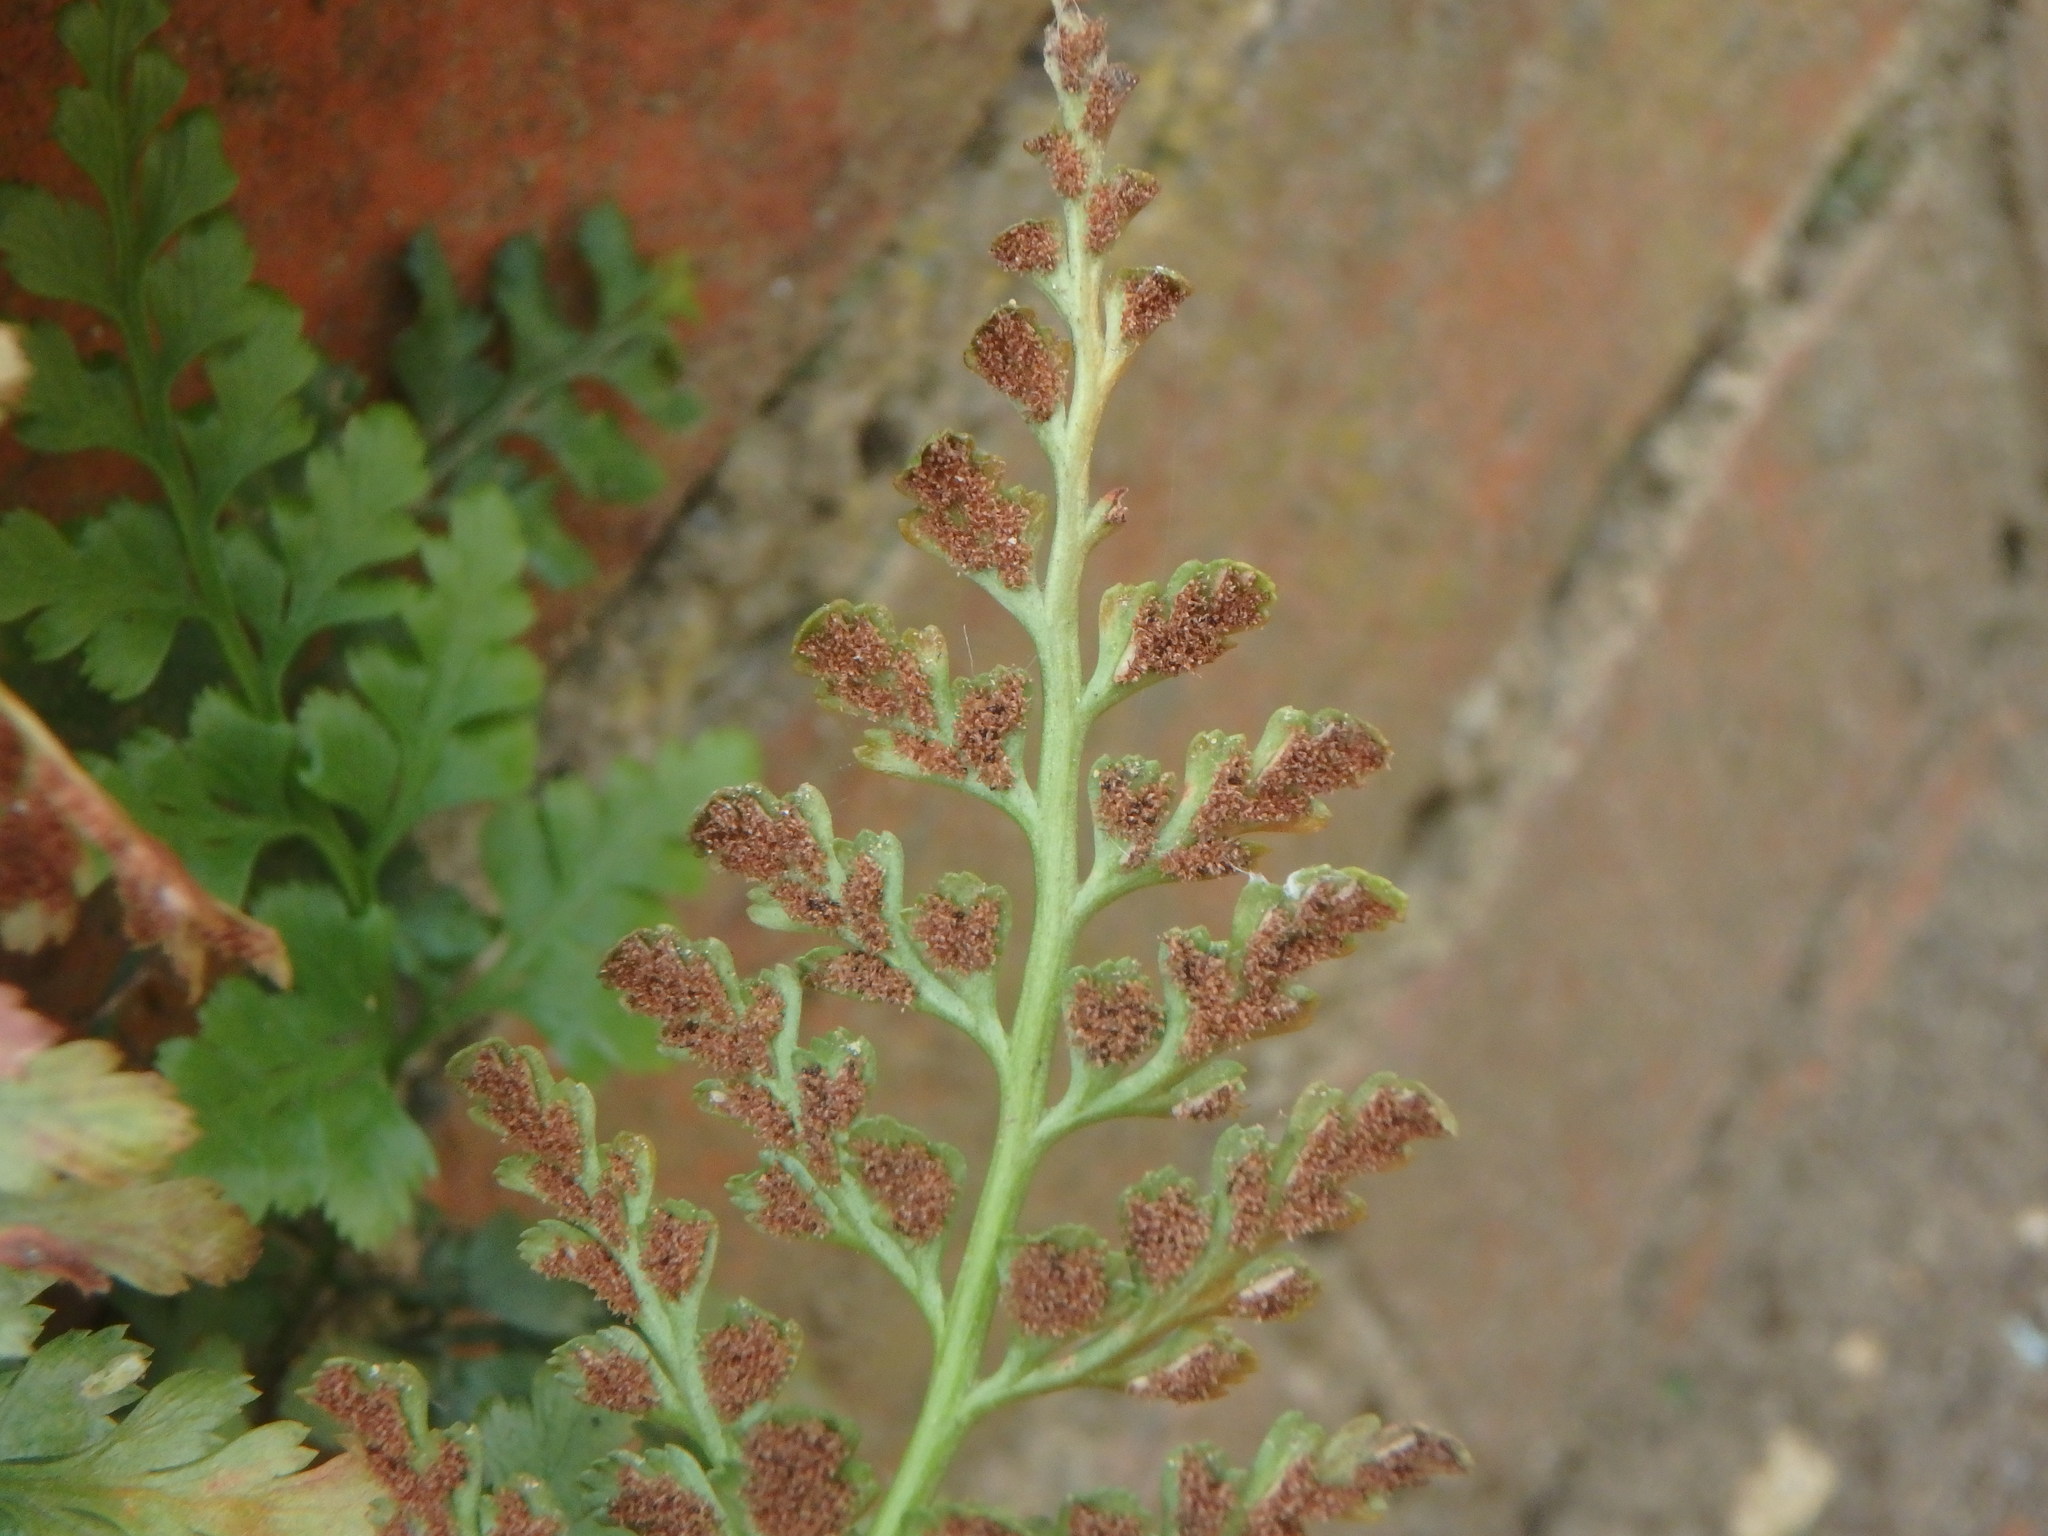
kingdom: Plantae
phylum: Tracheophyta
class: Polypodiopsida
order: Polypodiales
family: Aspleniaceae
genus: Asplenium
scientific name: Asplenium adiantum-nigrum
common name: Black spleenwort
